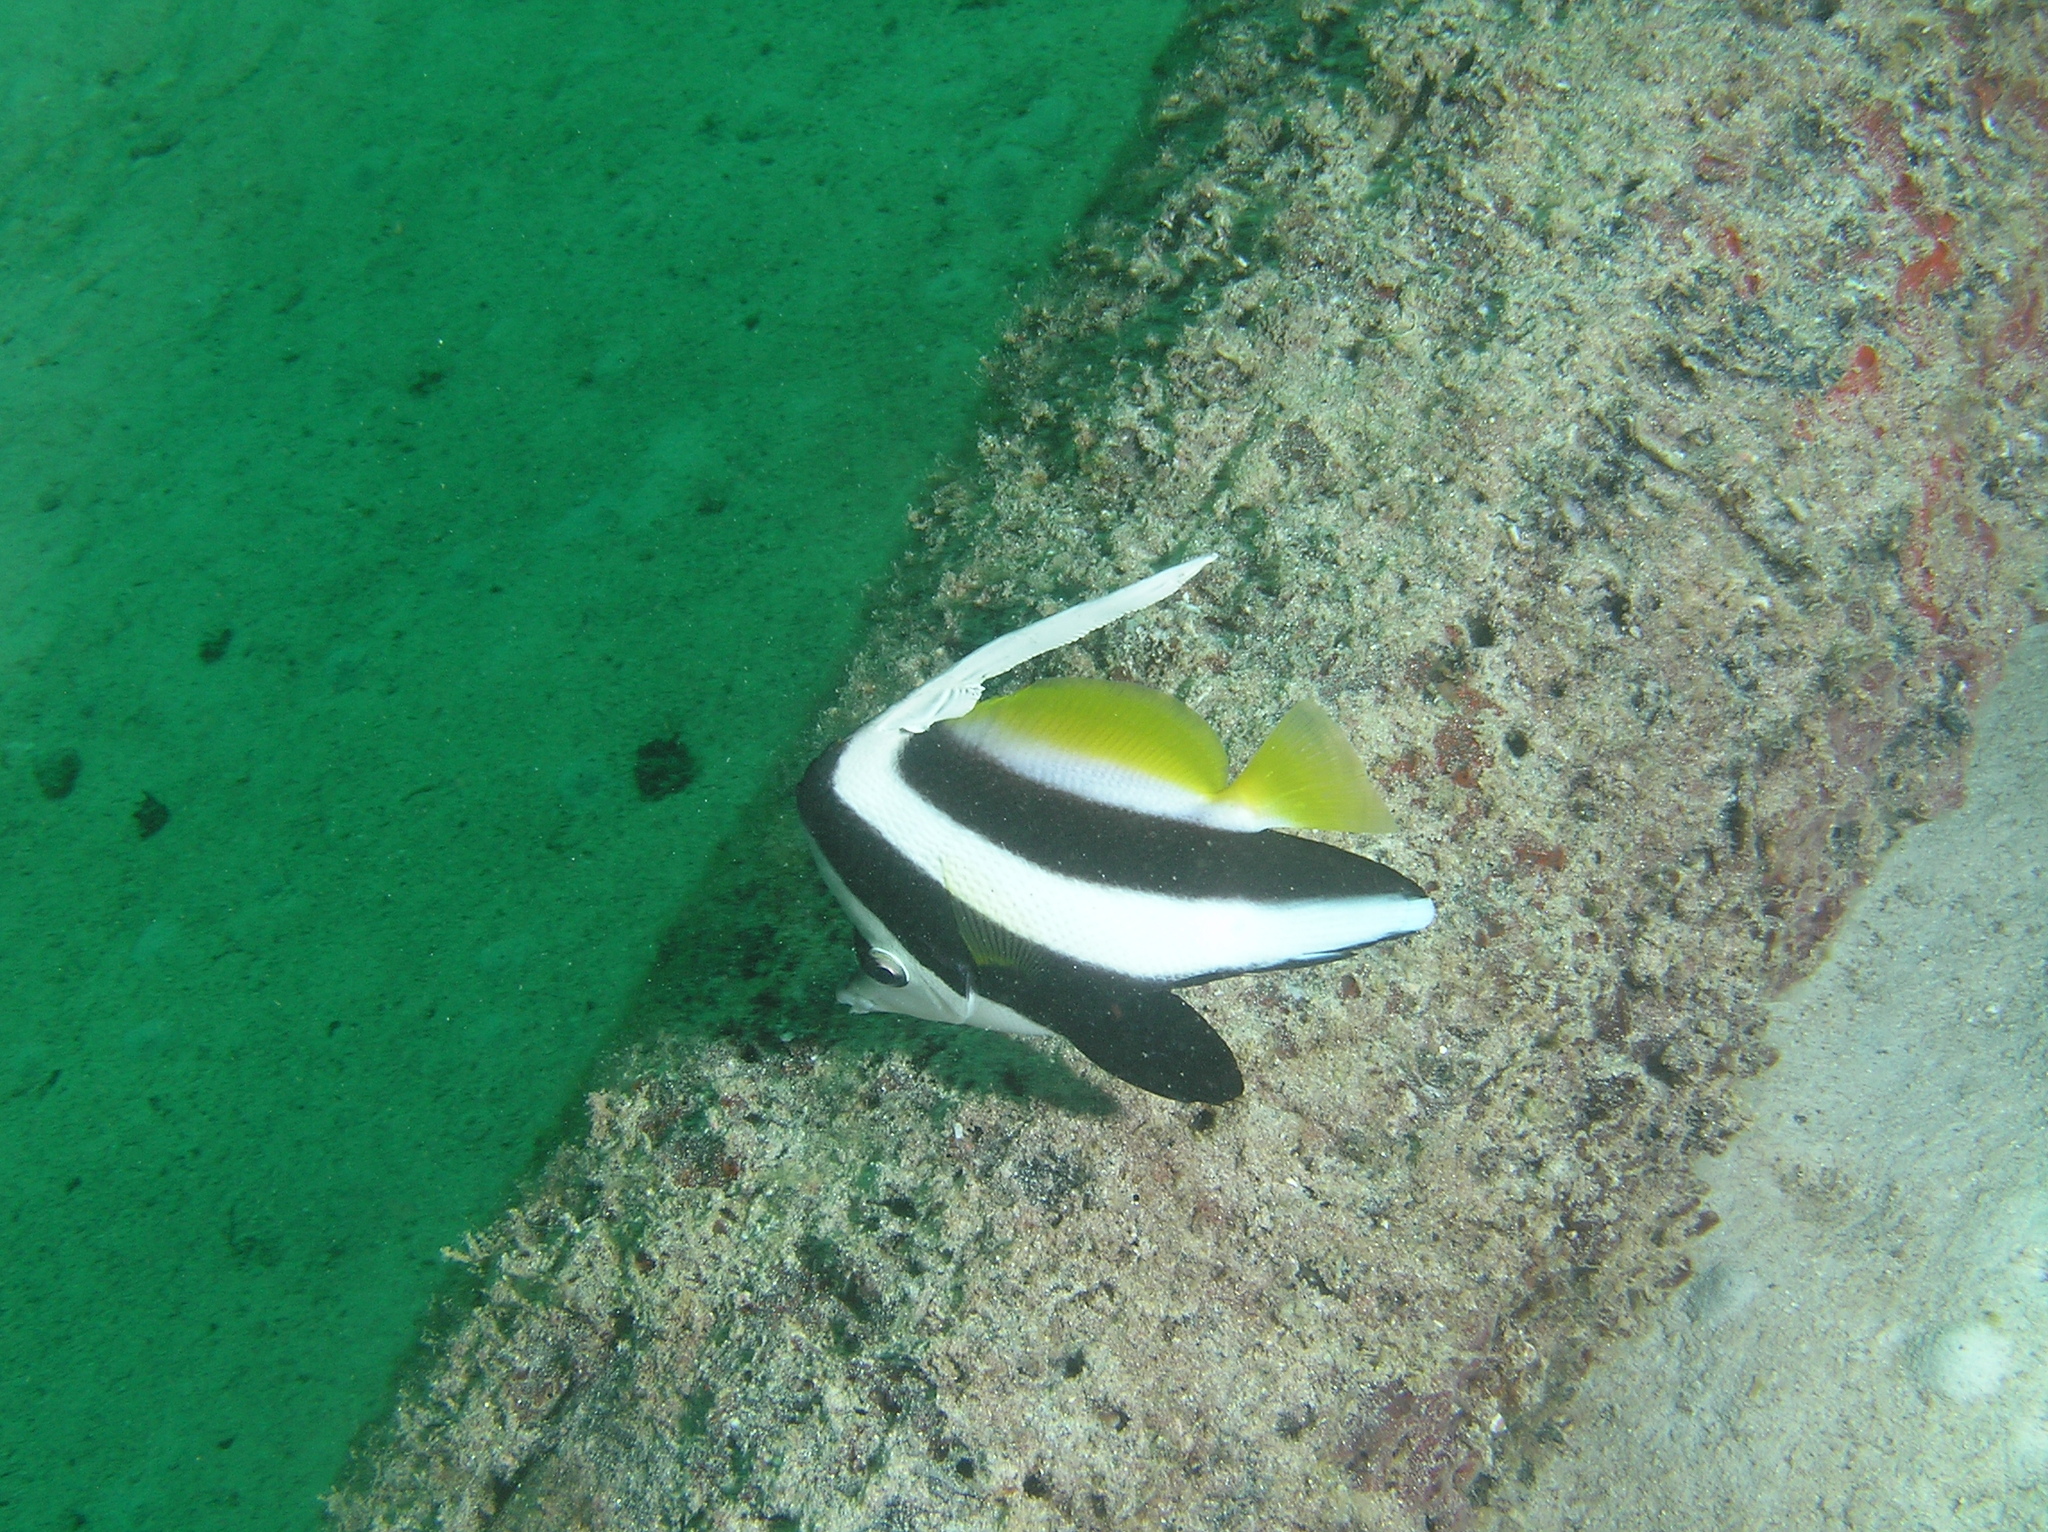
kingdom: Animalia
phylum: Chordata
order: Perciformes
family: Chaetodontidae
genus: Heniochus
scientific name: Heniochus acuminatus
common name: Pennant coralfish
